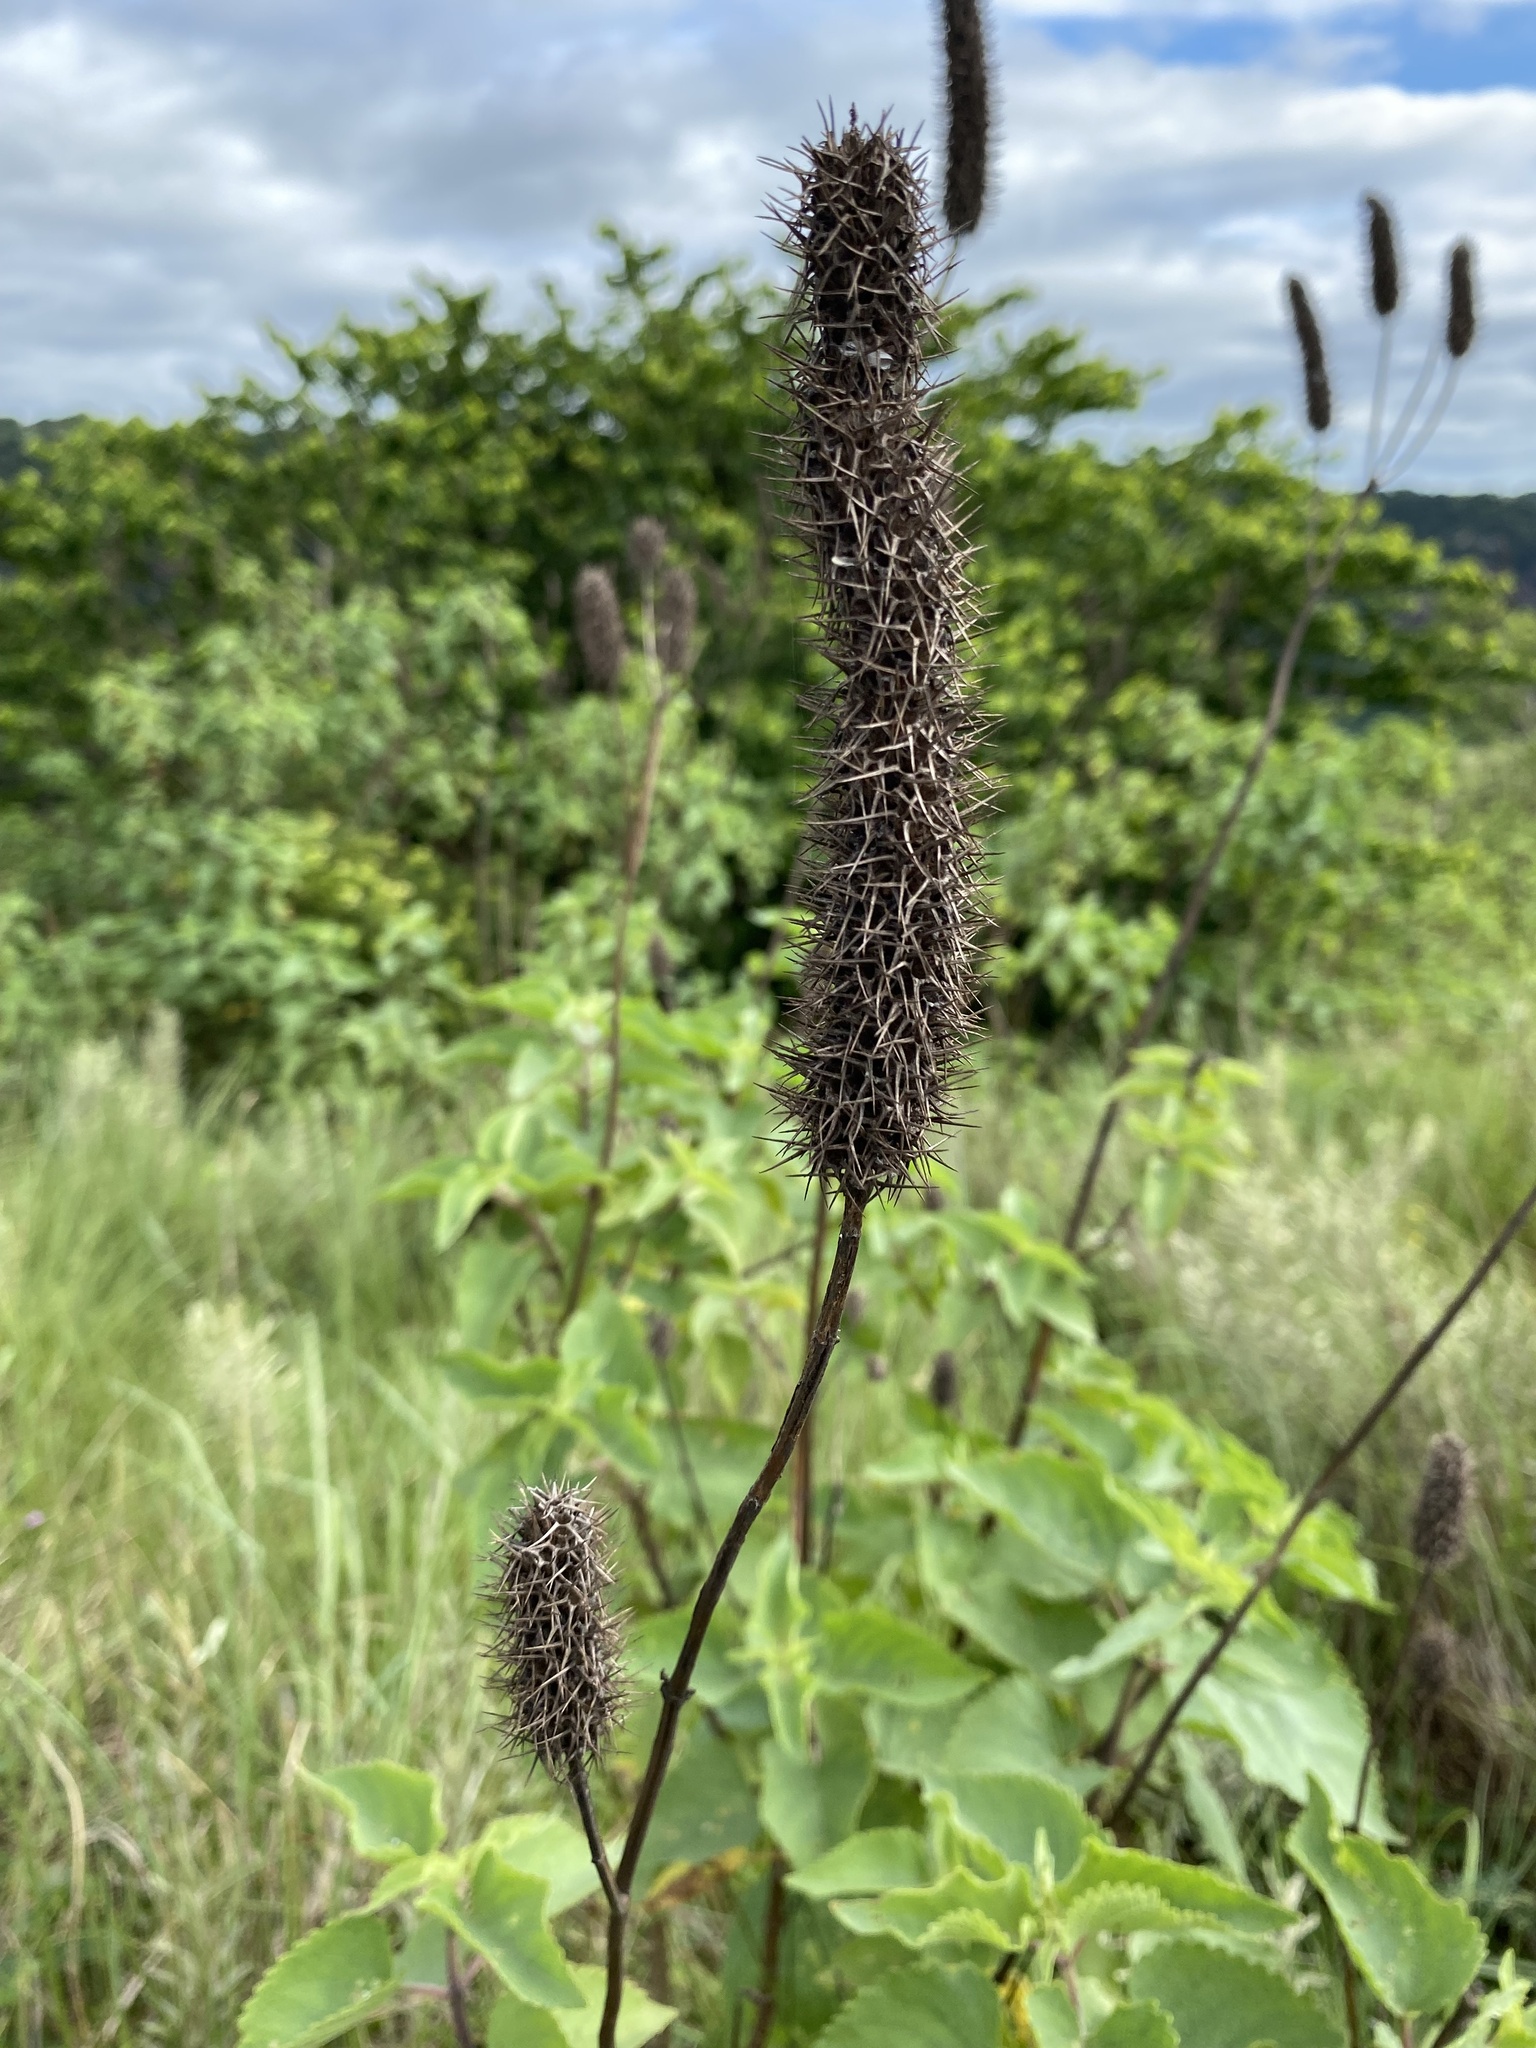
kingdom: Plantae
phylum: Tracheophyta
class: Magnoliopsida
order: Lamiales
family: Lamiaceae
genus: Coleus
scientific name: Coleus livingstonei
